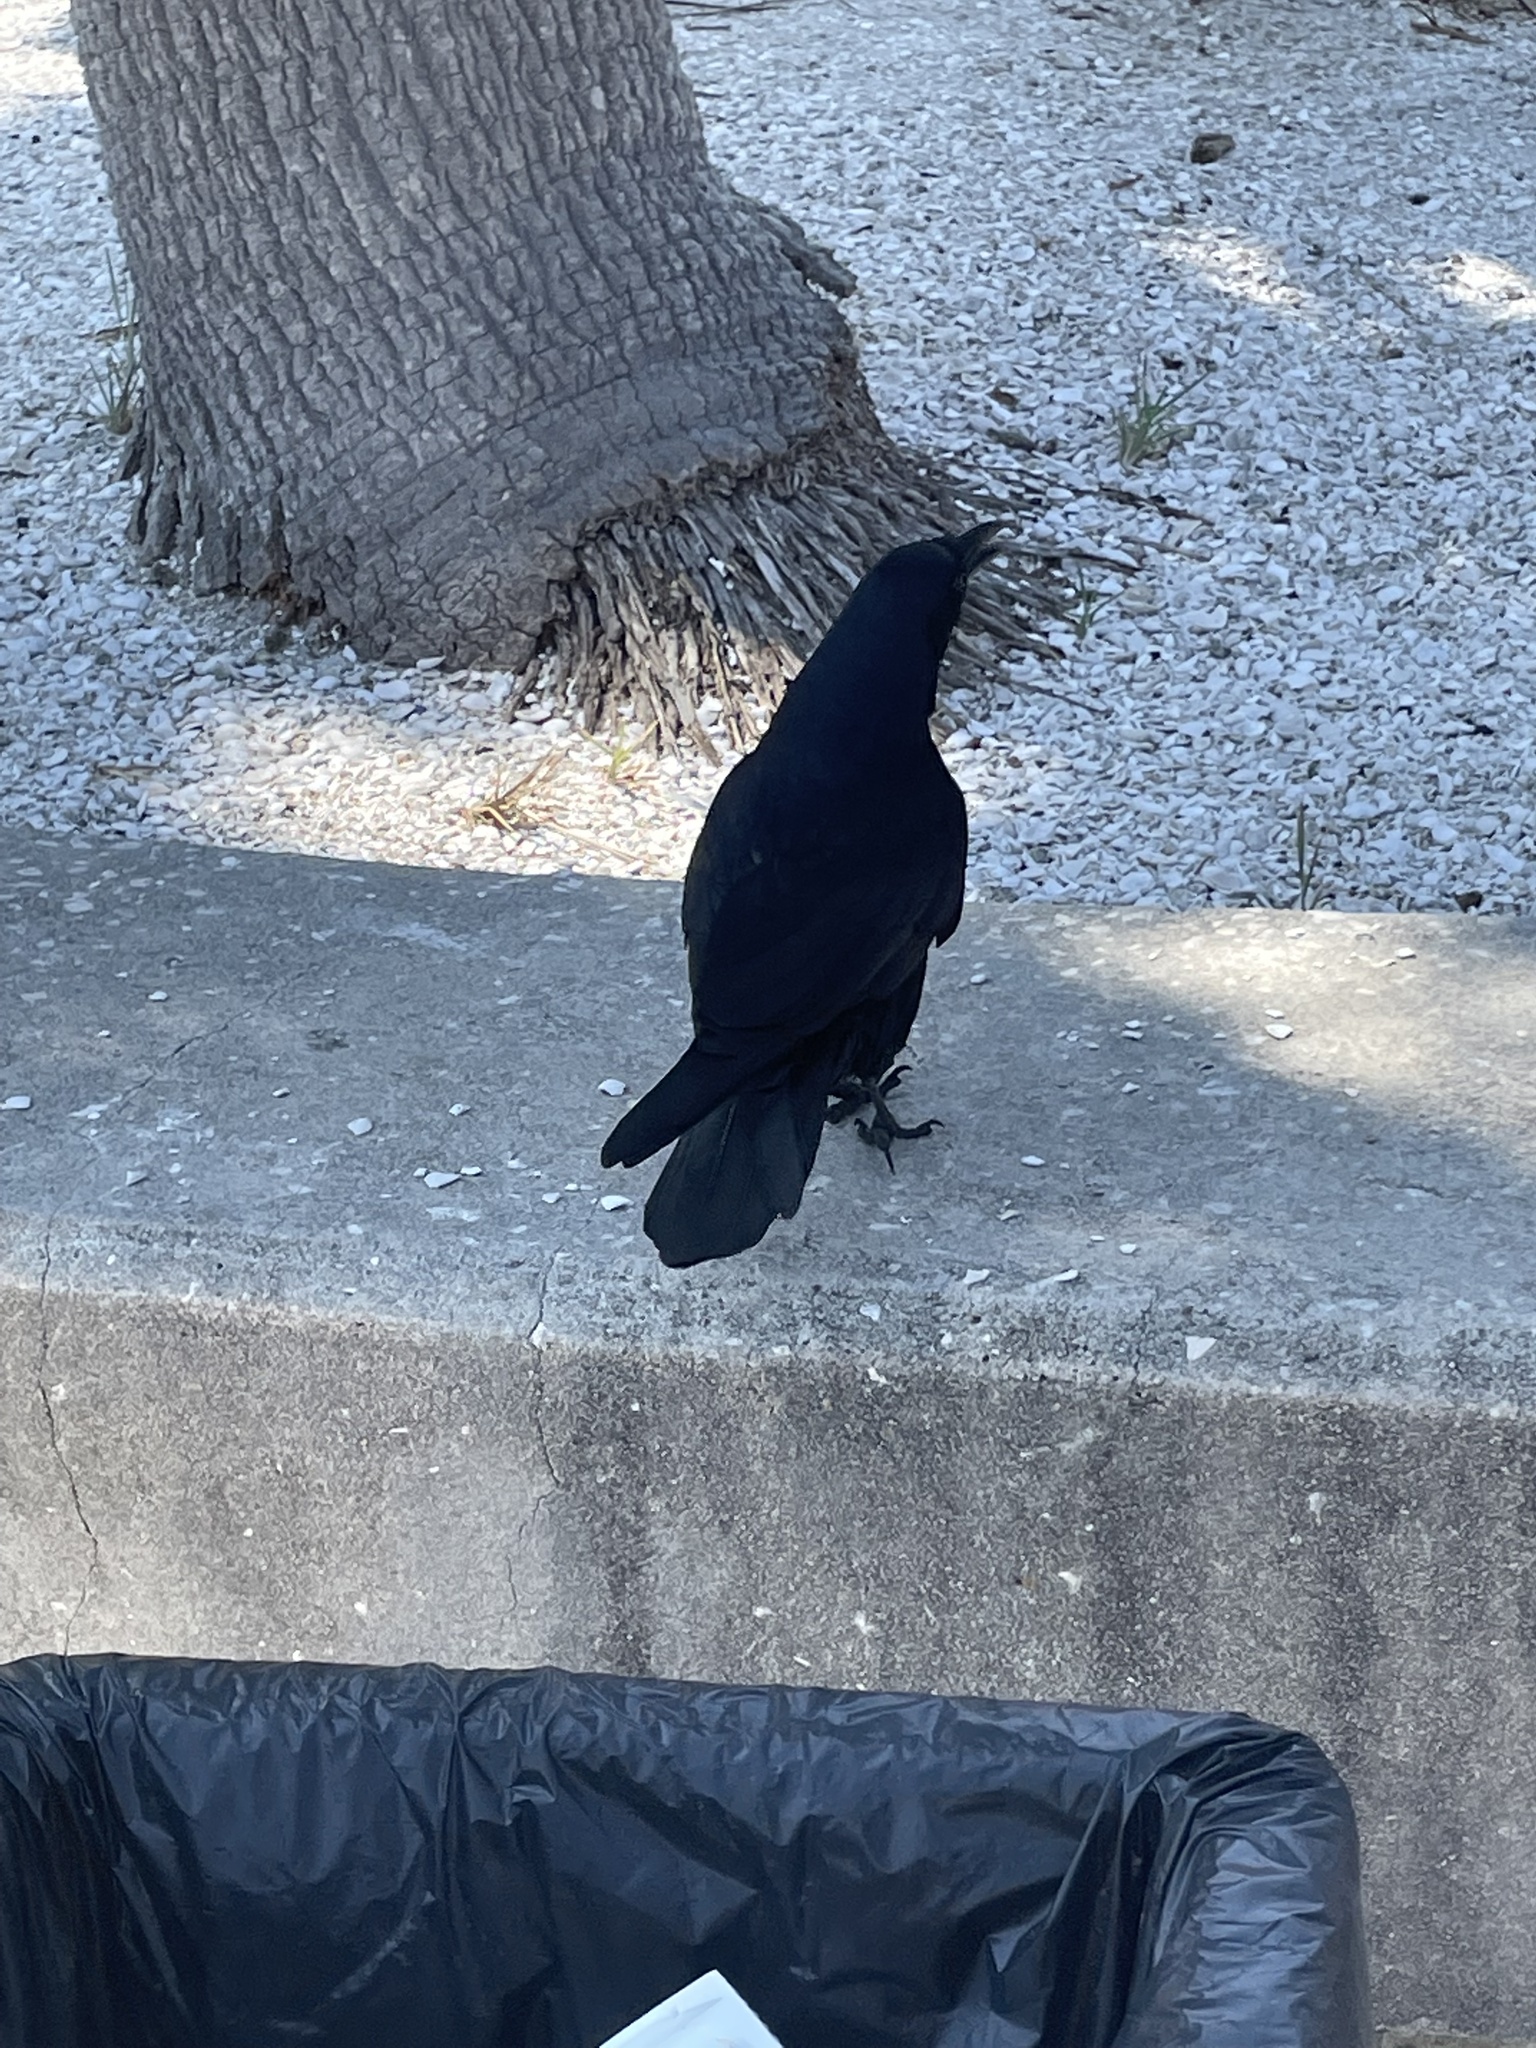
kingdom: Animalia
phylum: Chordata
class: Aves
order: Passeriformes
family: Corvidae
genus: Corvus
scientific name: Corvus ossifragus
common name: Fish crow
